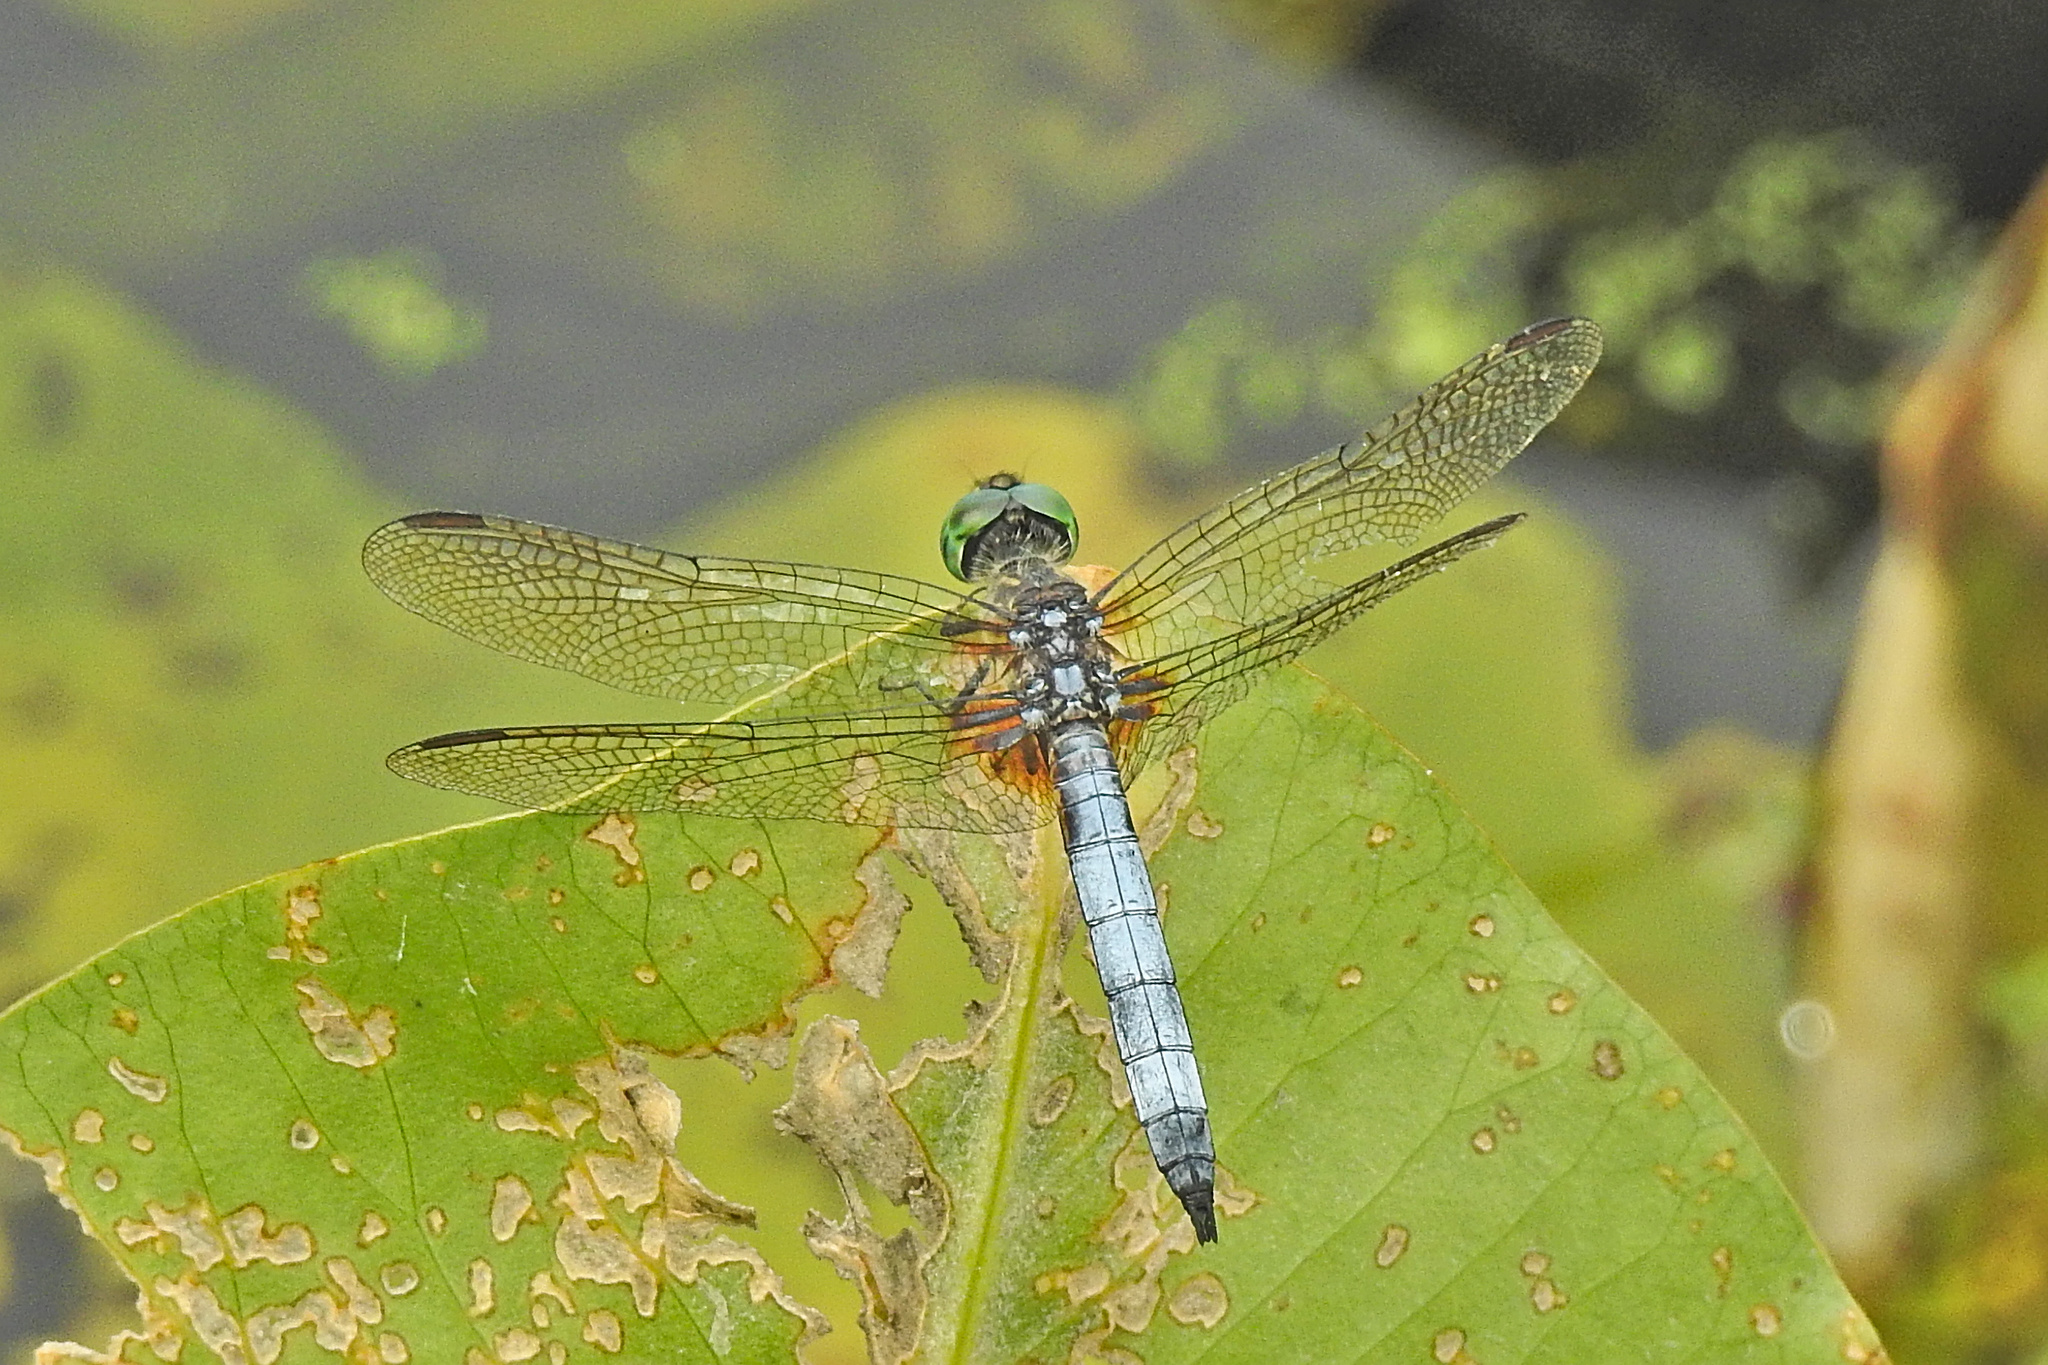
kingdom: Animalia
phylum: Arthropoda
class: Insecta
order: Odonata
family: Libellulidae
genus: Pachydiplax
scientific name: Pachydiplax longipennis
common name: Blue dasher
